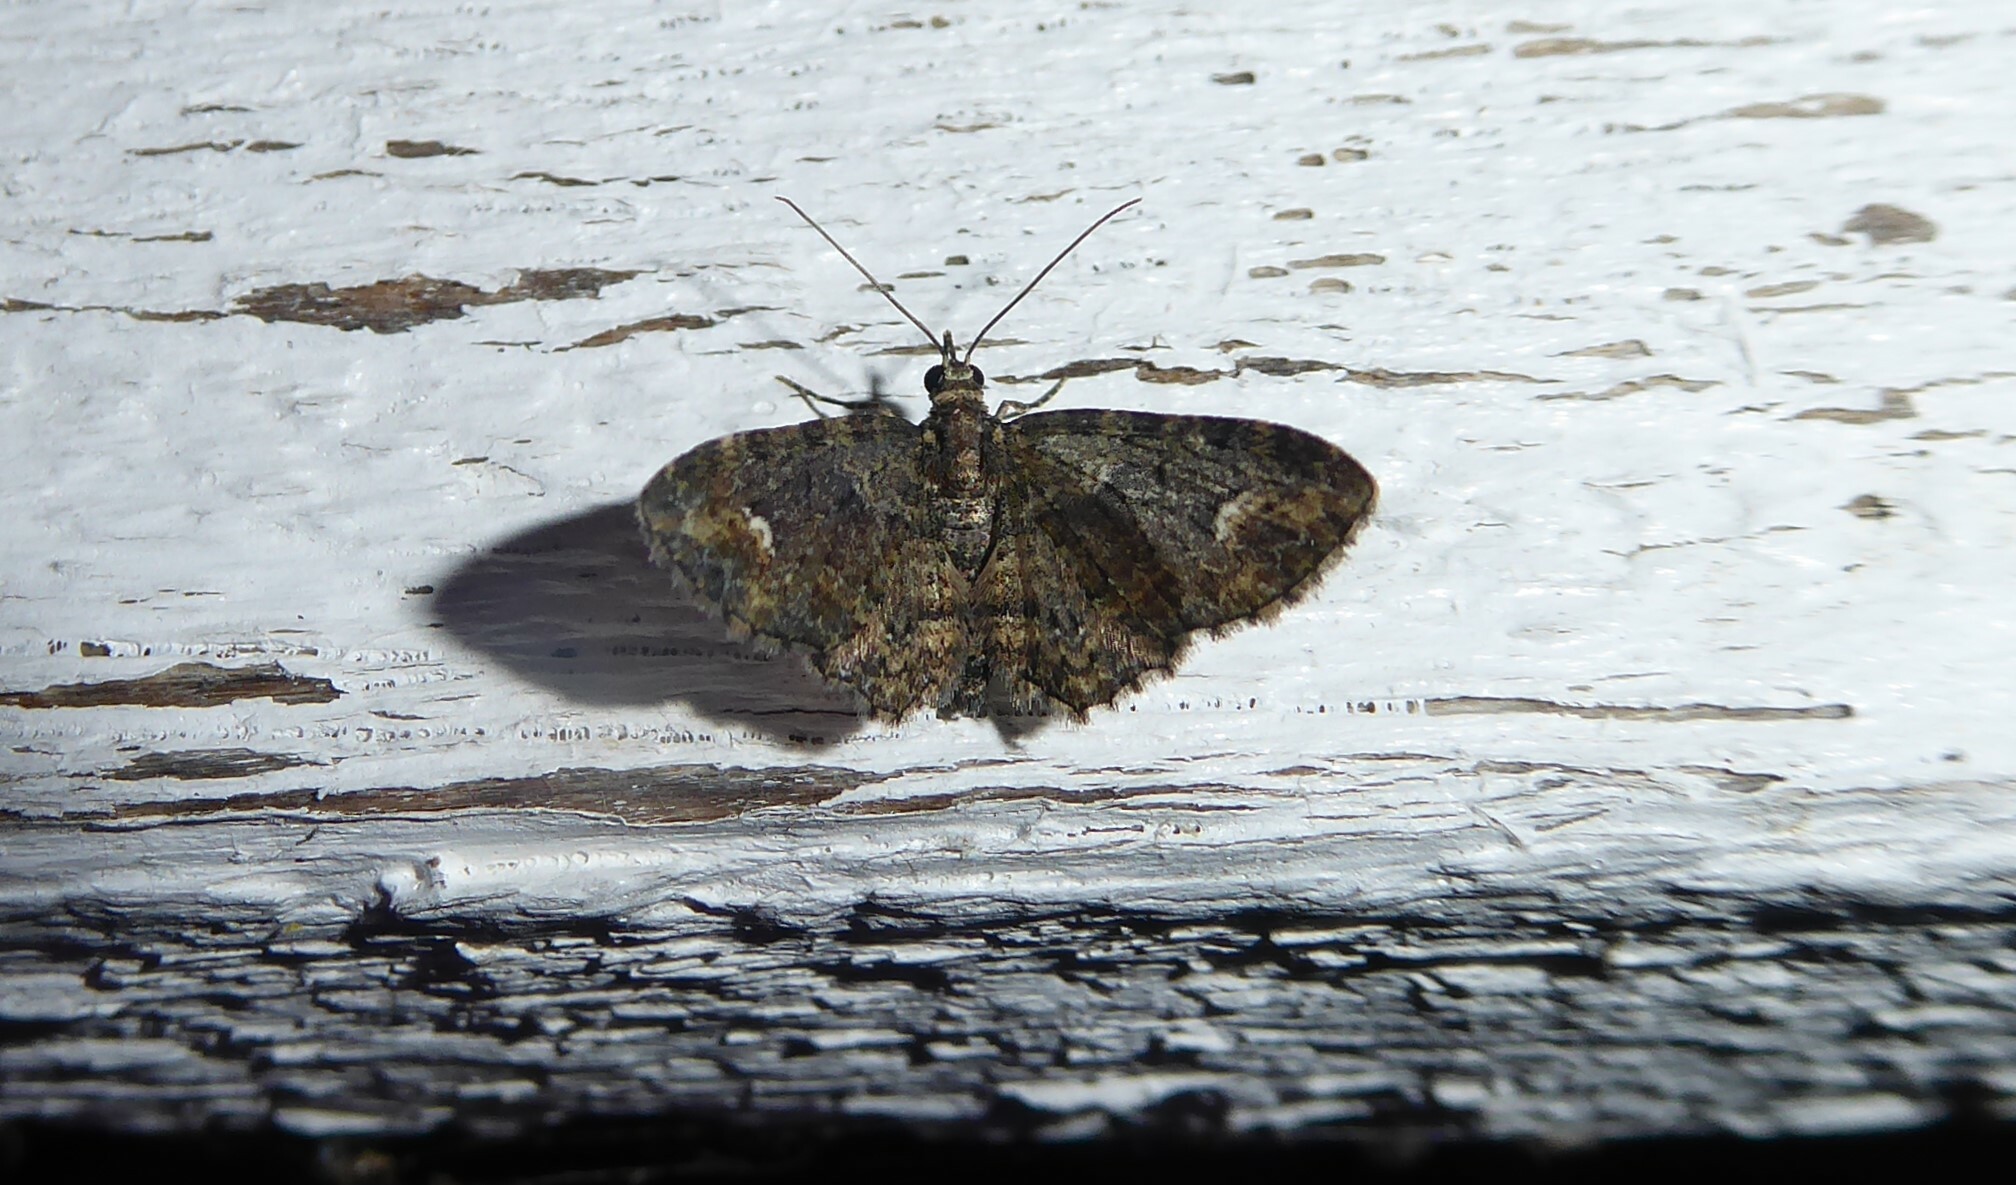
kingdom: Animalia
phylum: Arthropoda
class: Insecta
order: Lepidoptera
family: Geometridae
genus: Pasiphilodes
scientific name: Pasiphilodes testulata
